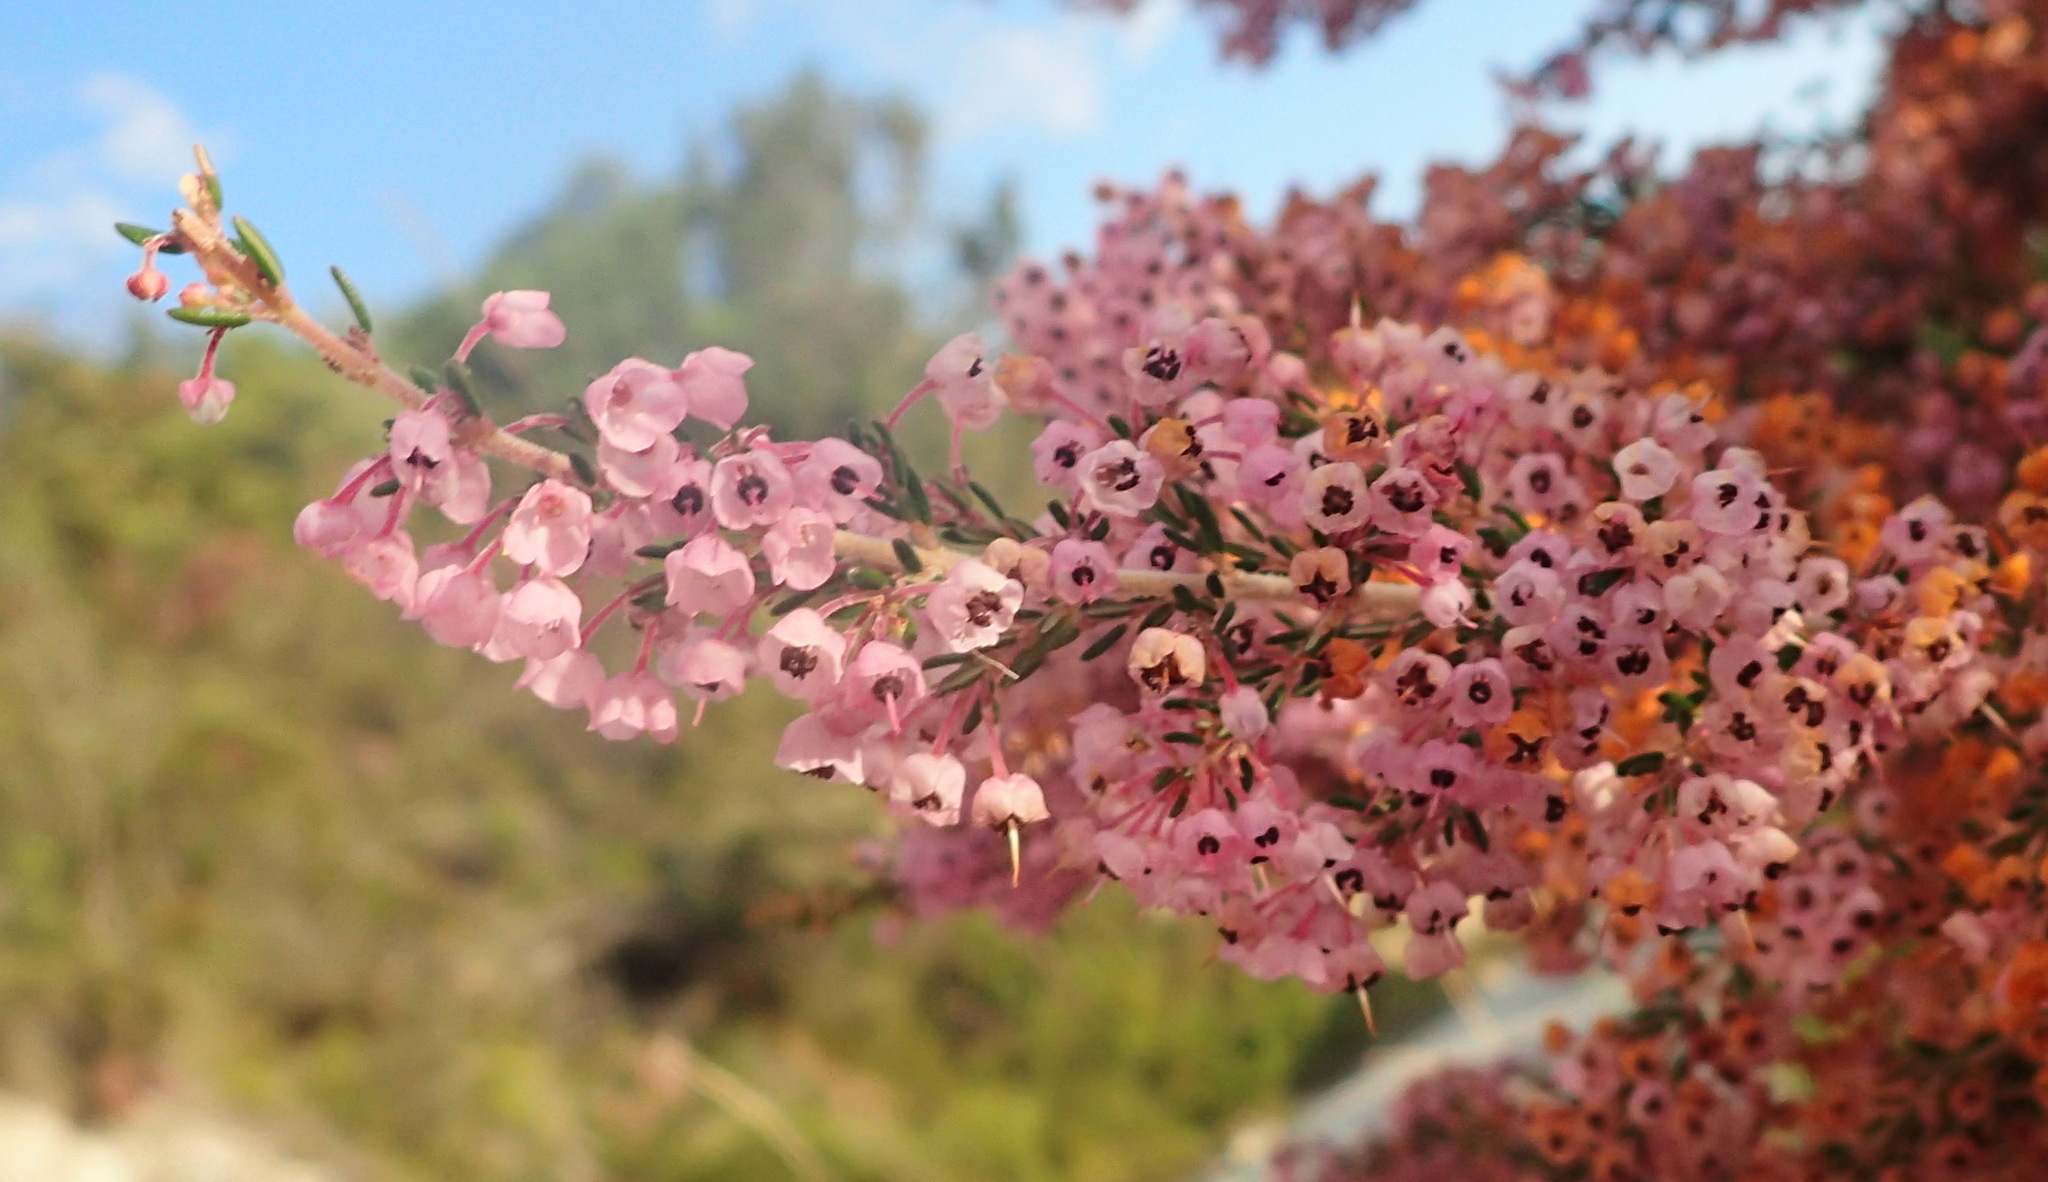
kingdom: Plantae
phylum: Tracheophyta
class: Magnoliopsida
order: Ericales
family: Ericaceae
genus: Erica
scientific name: Erica canaliculata
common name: Hairy grey heather
